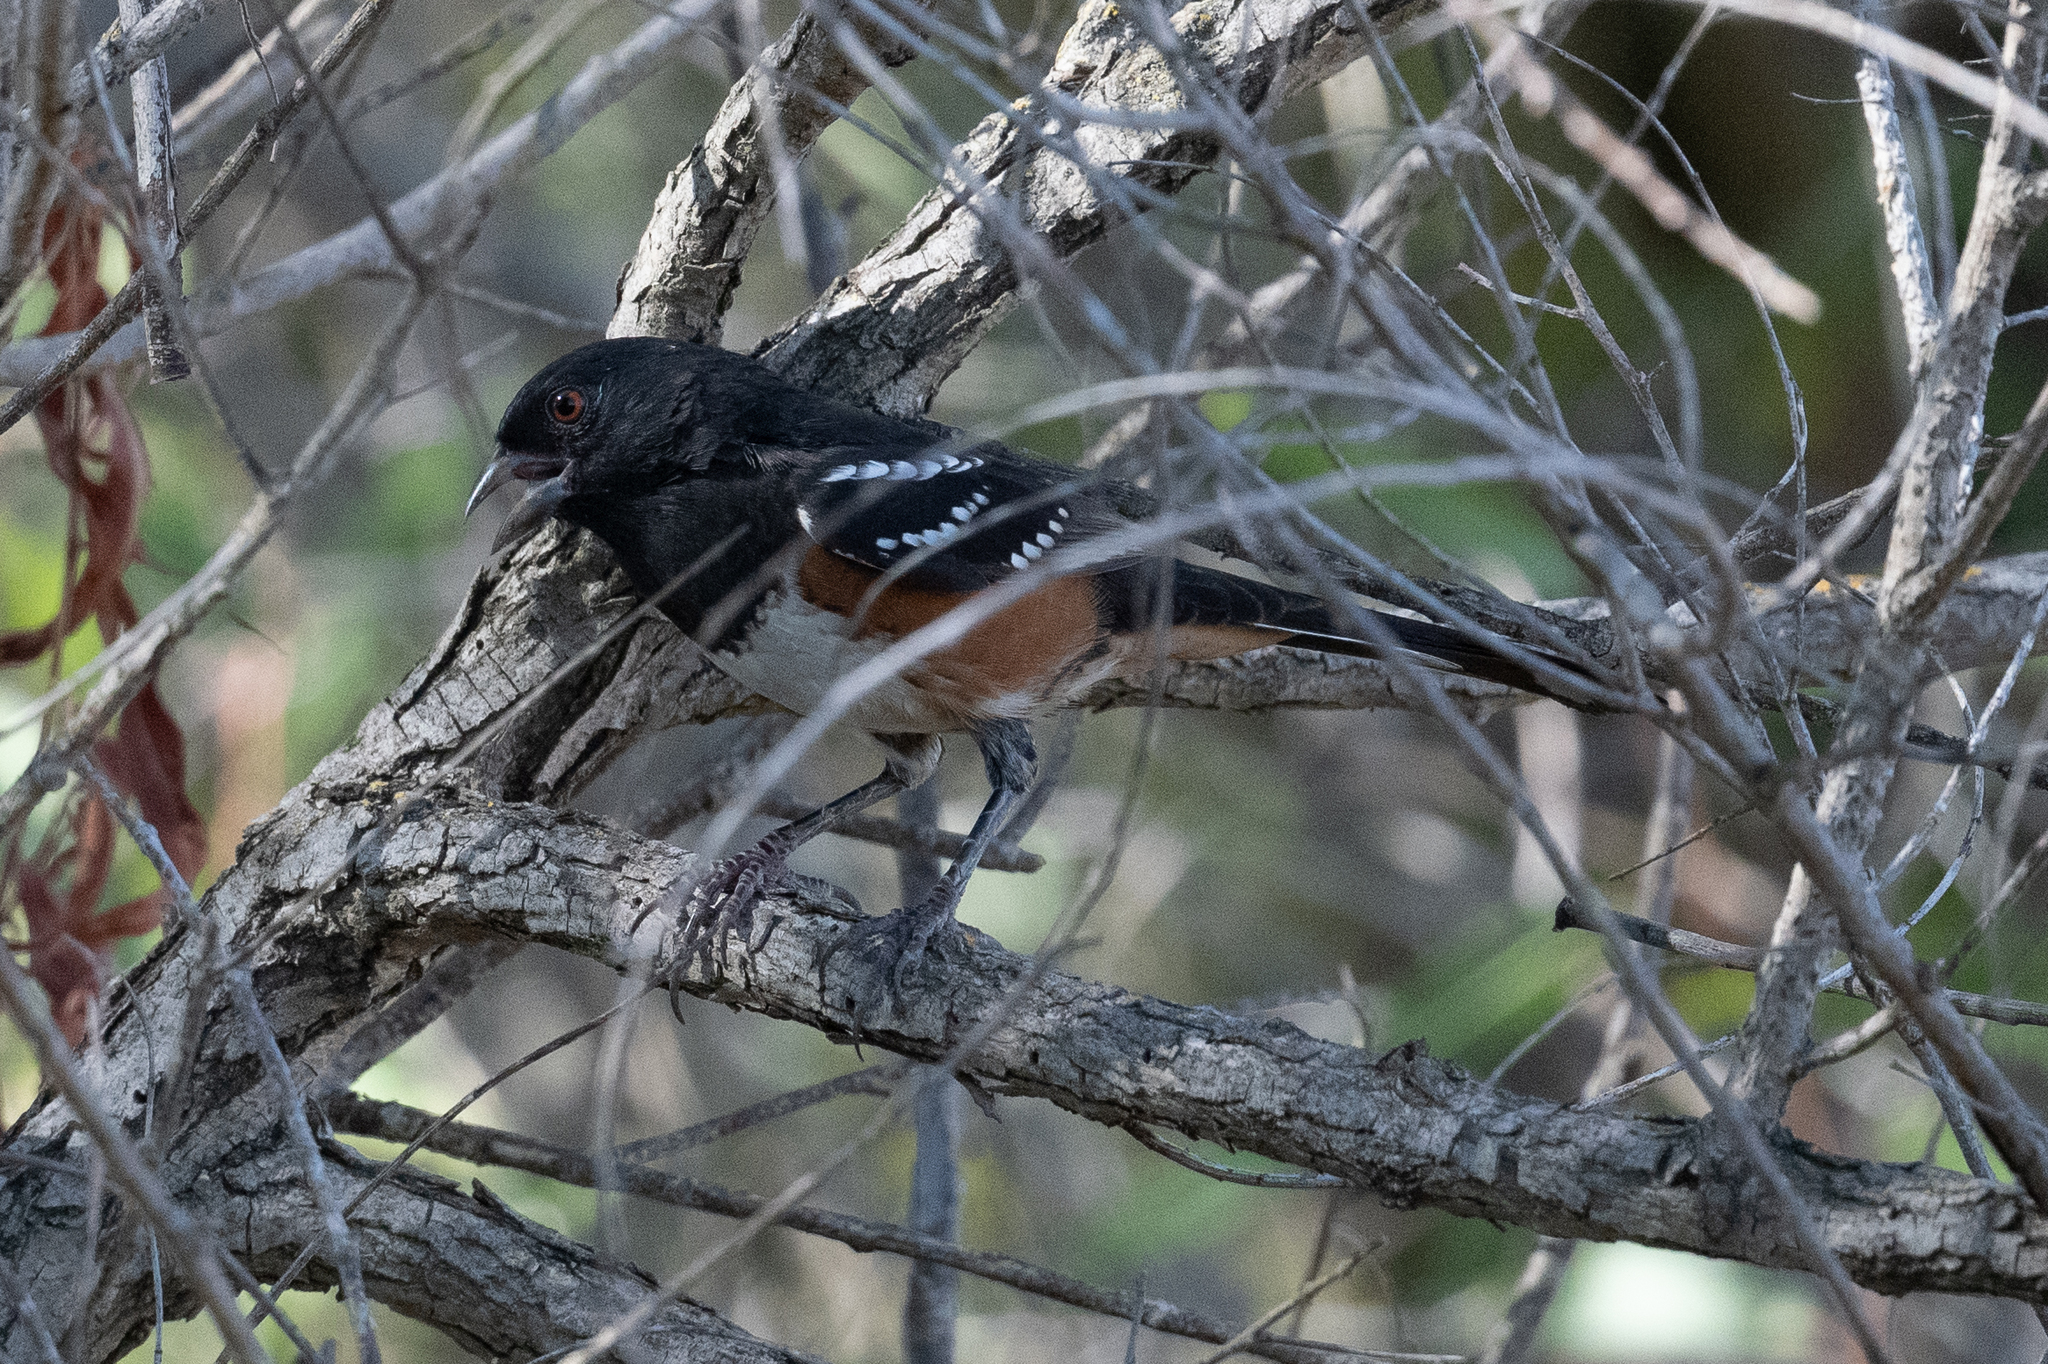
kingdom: Animalia
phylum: Chordata
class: Aves
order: Passeriformes
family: Passerellidae
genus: Pipilo
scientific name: Pipilo maculatus
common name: Spotted towhee
